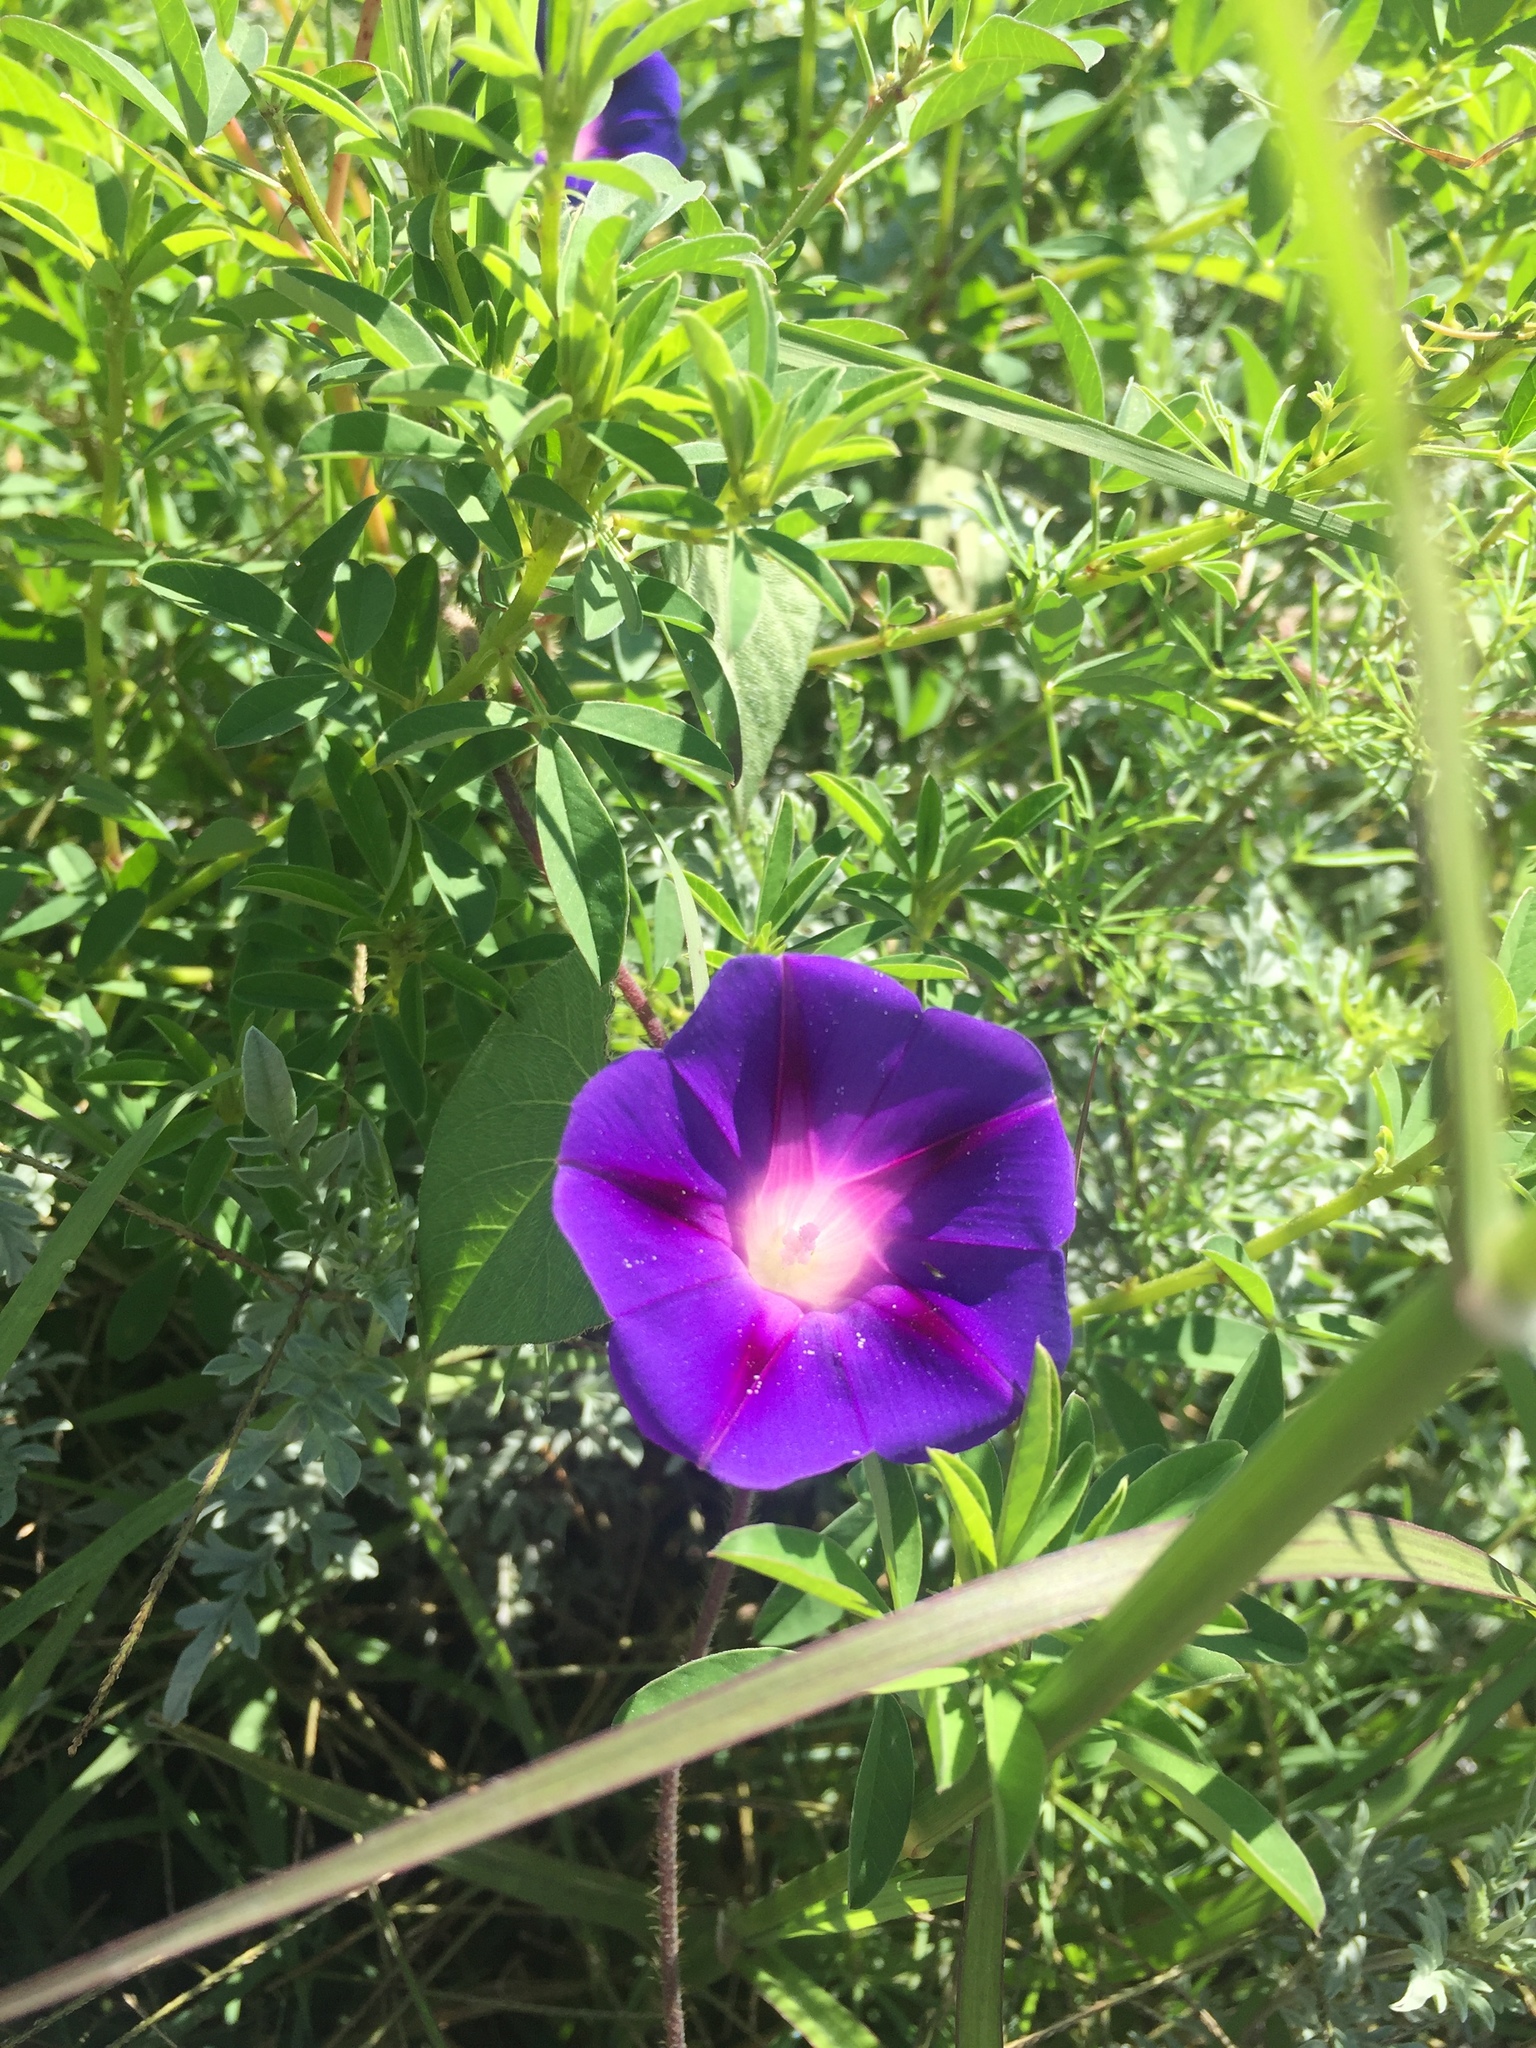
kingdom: Plantae
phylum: Tracheophyta
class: Magnoliopsida
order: Solanales
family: Convolvulaceae
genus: Ipomoea
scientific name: Ipomoea purpurea
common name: Common morning-glory
